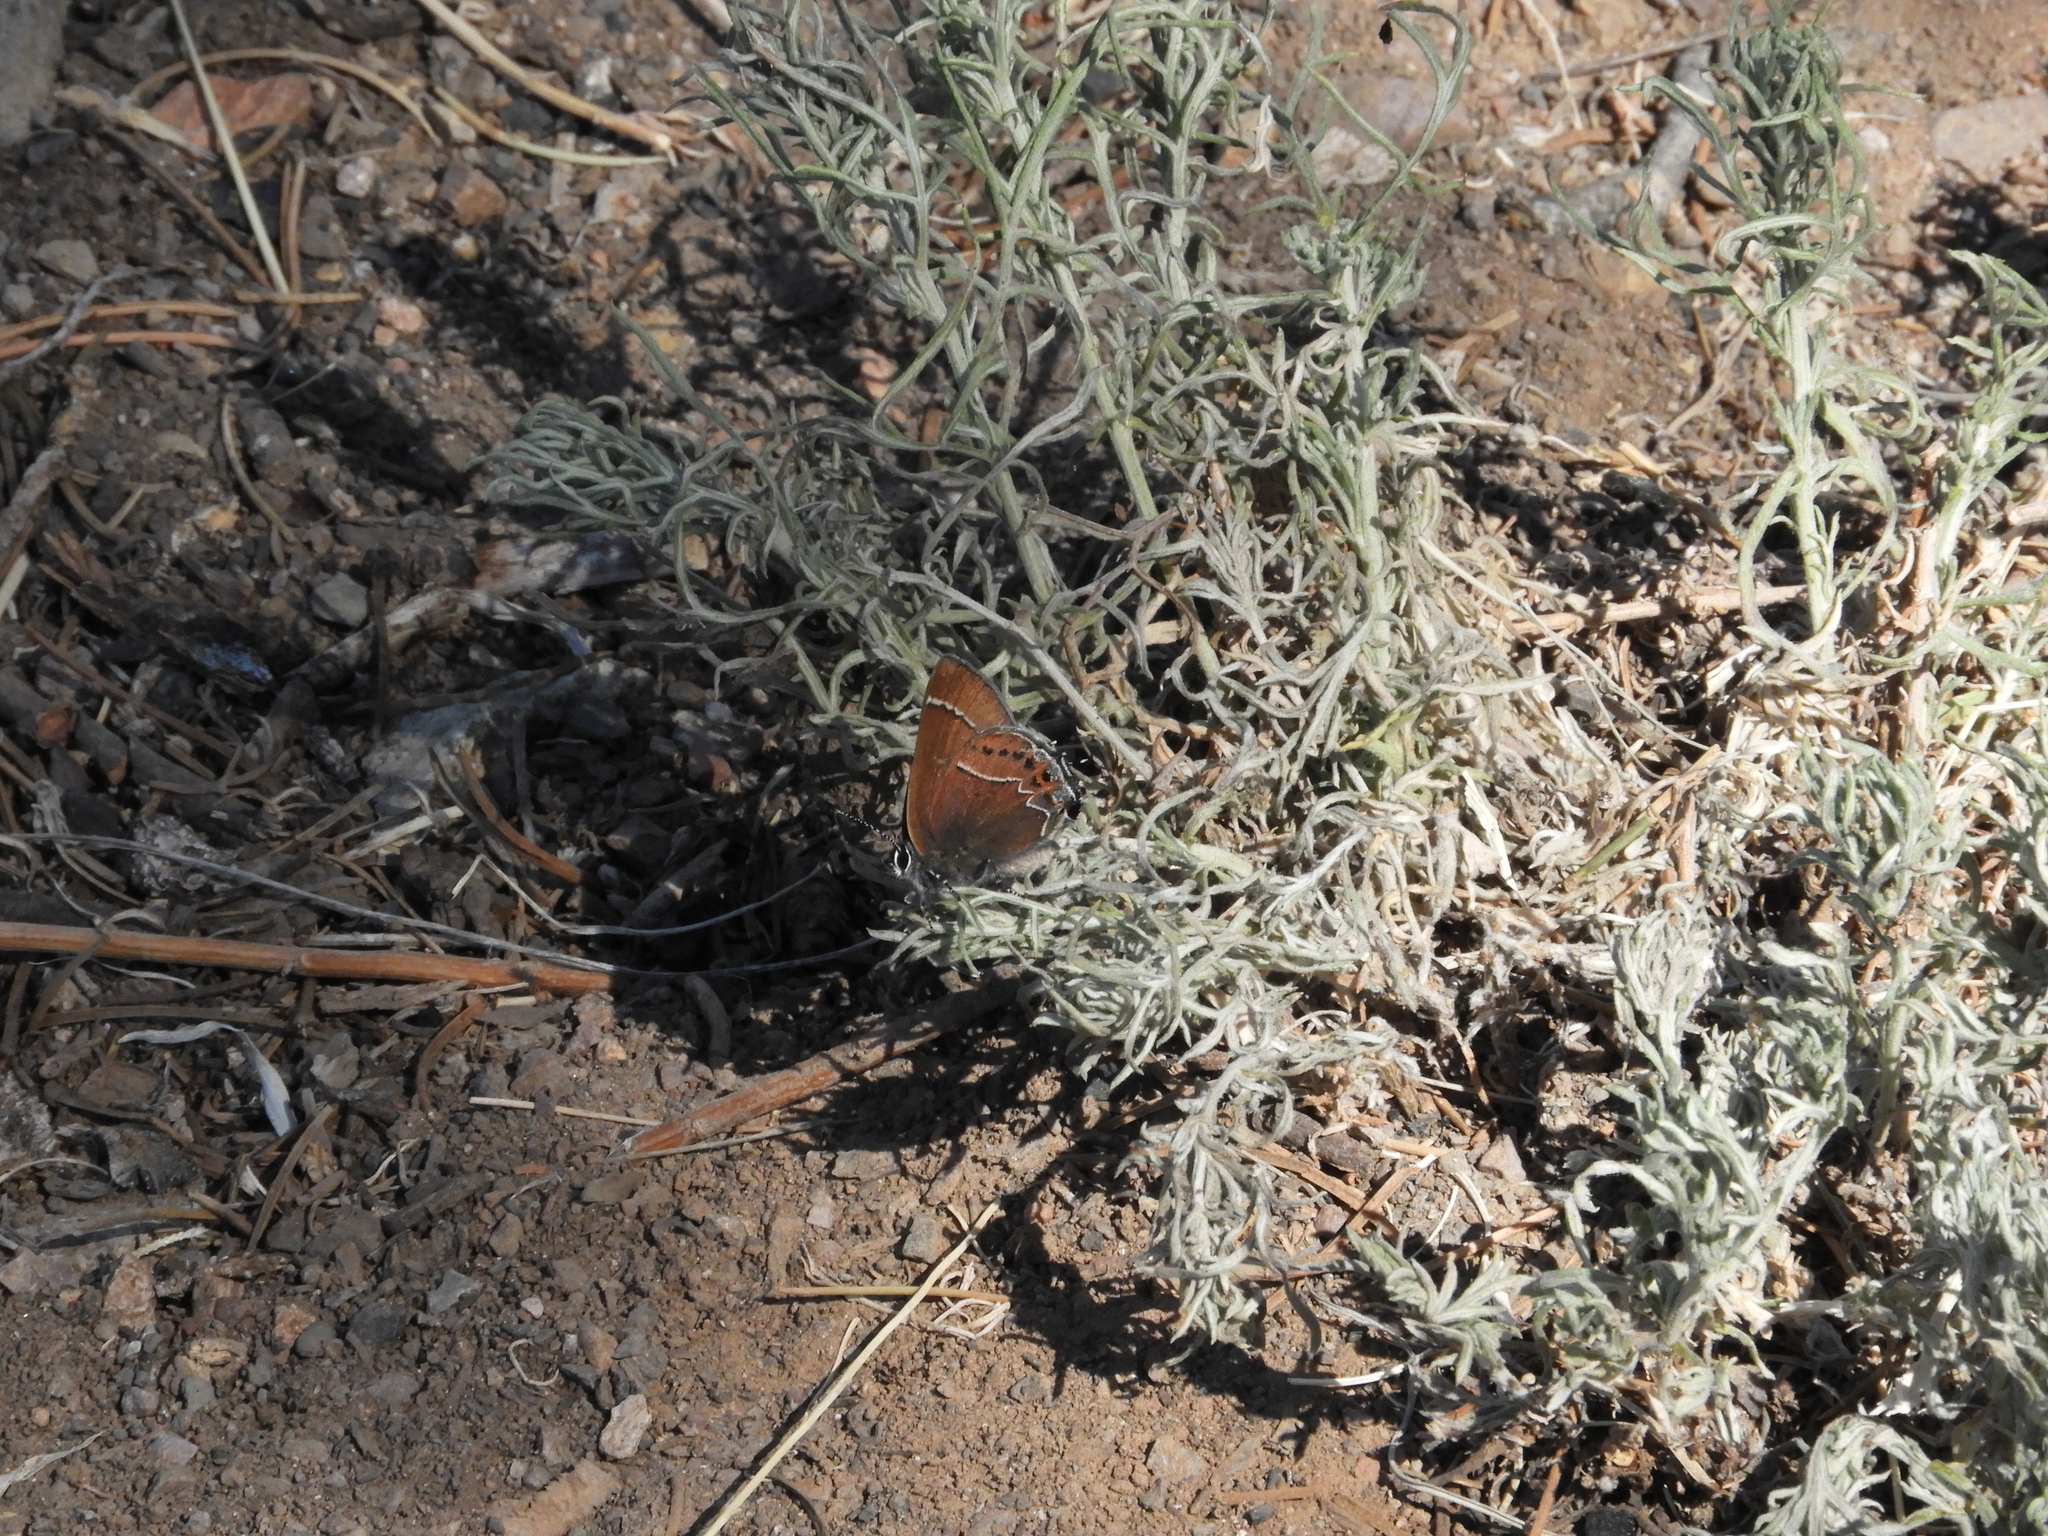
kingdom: Animalia
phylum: Arthropoda
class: Insecta
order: Lepidoptera
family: Lycaenidae
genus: Mitoura
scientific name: Mitoura spinetorum
